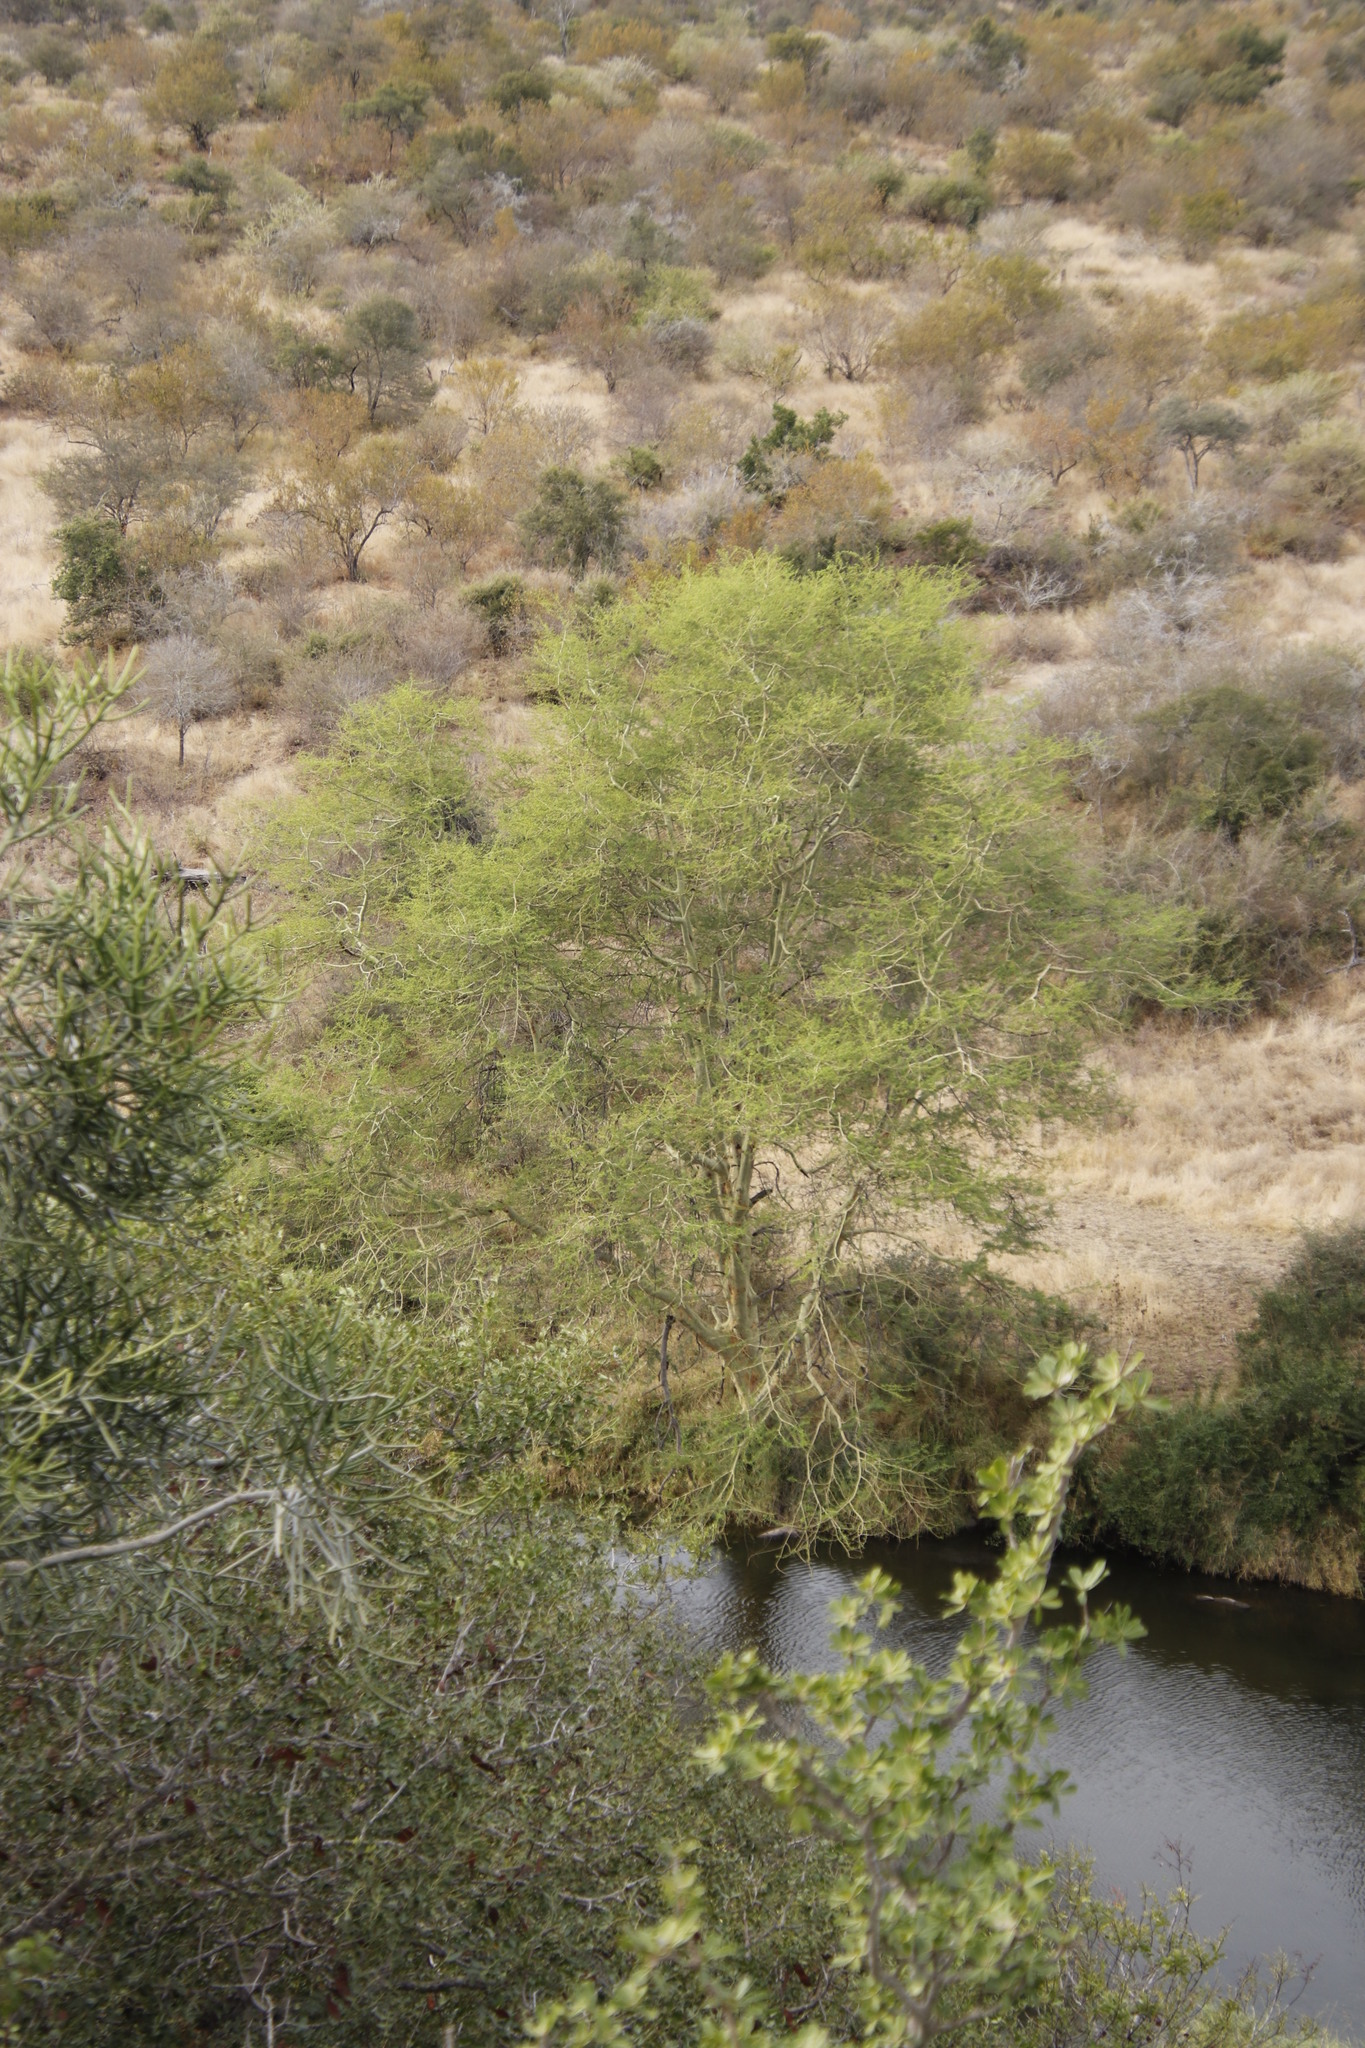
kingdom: Plantae
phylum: Tracheophyta
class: Magnoliopsida
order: Fabales
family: Fabaceae
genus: Vachellia
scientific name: Vachellia xanthophloea
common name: Fever tree
